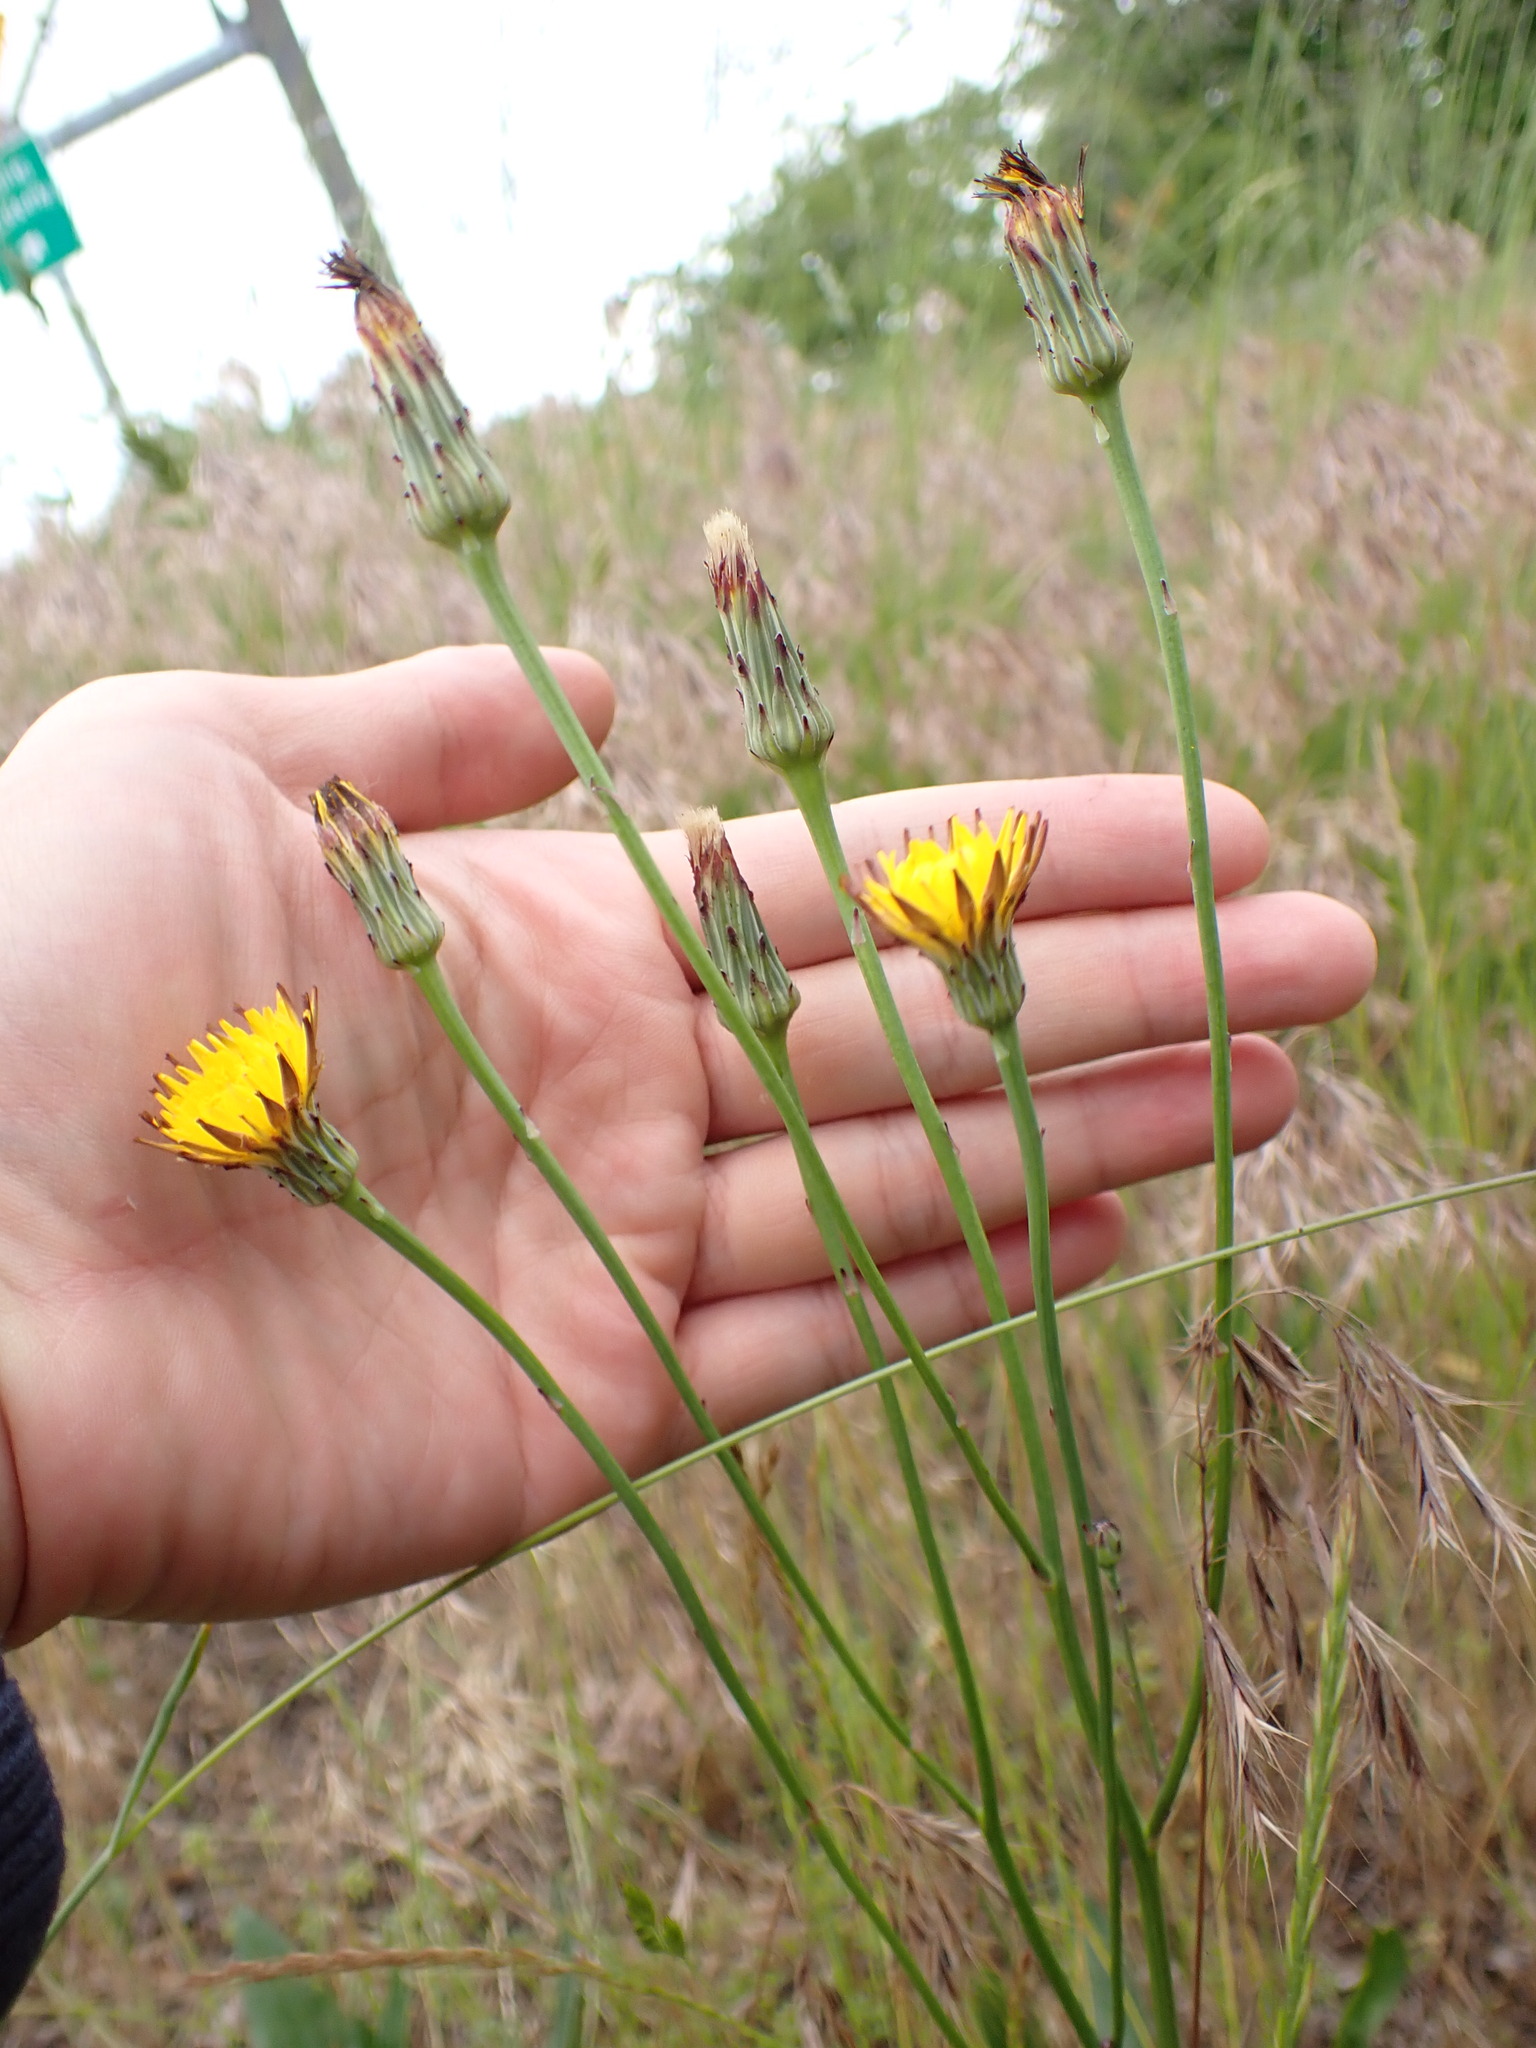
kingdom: Plantae
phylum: Tracheophyta
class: Magnoliopsida
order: Asterales
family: Asteraceae
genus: Hypochaeris
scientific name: Hypochaeris radicata
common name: Flatweed
